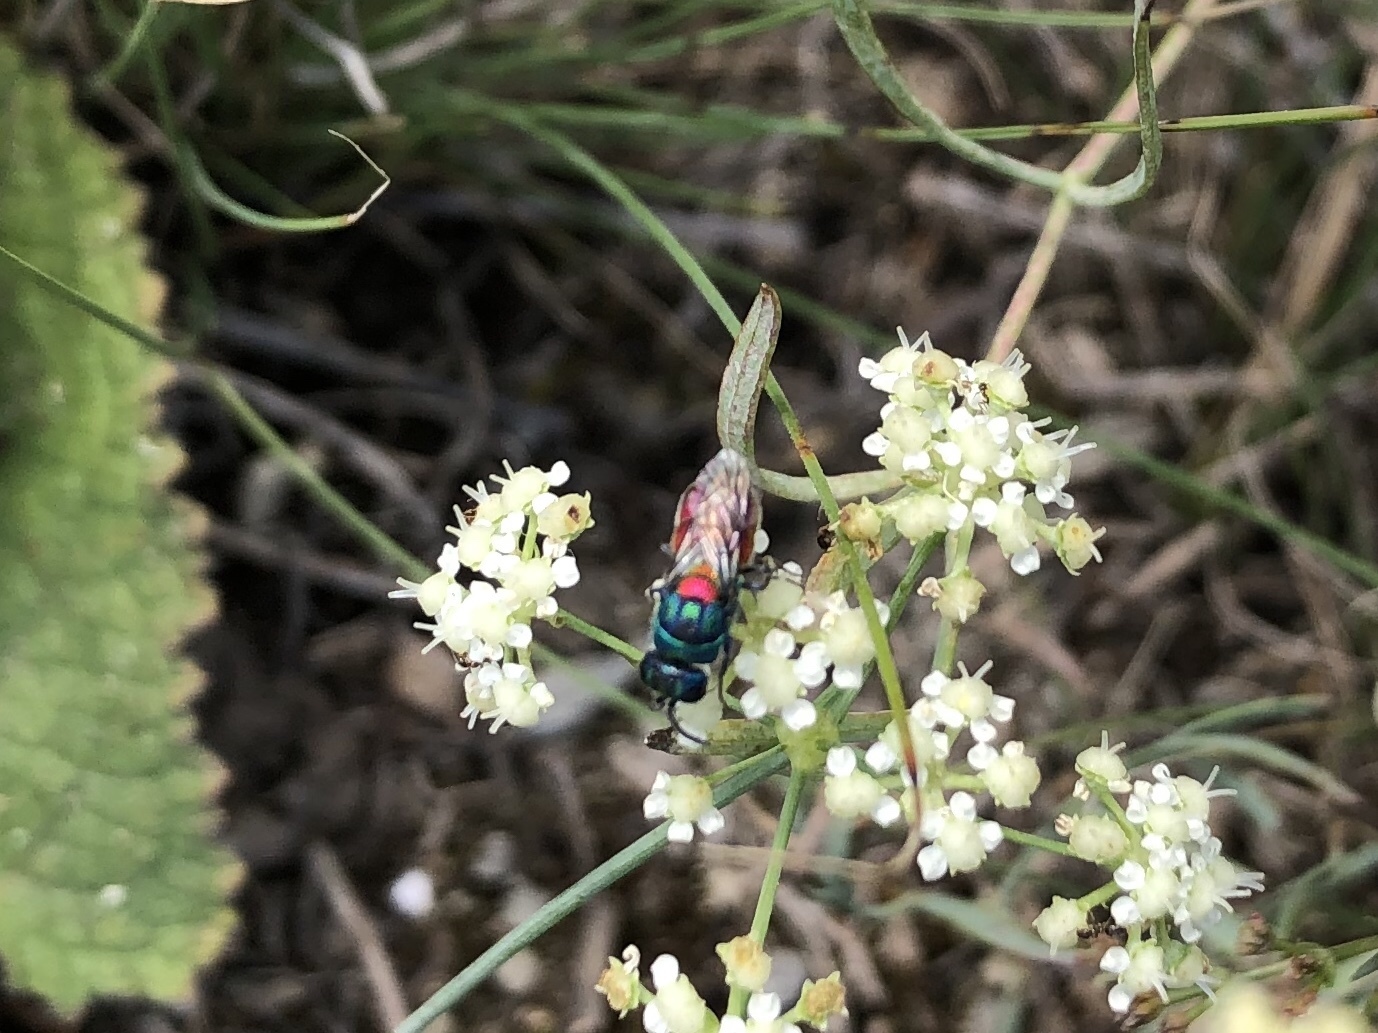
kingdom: Animalia
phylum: Arthropoda
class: Insecta
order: Hymenoptera
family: Chrysididae
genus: Chrysis
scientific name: Chrysis scutellaris
